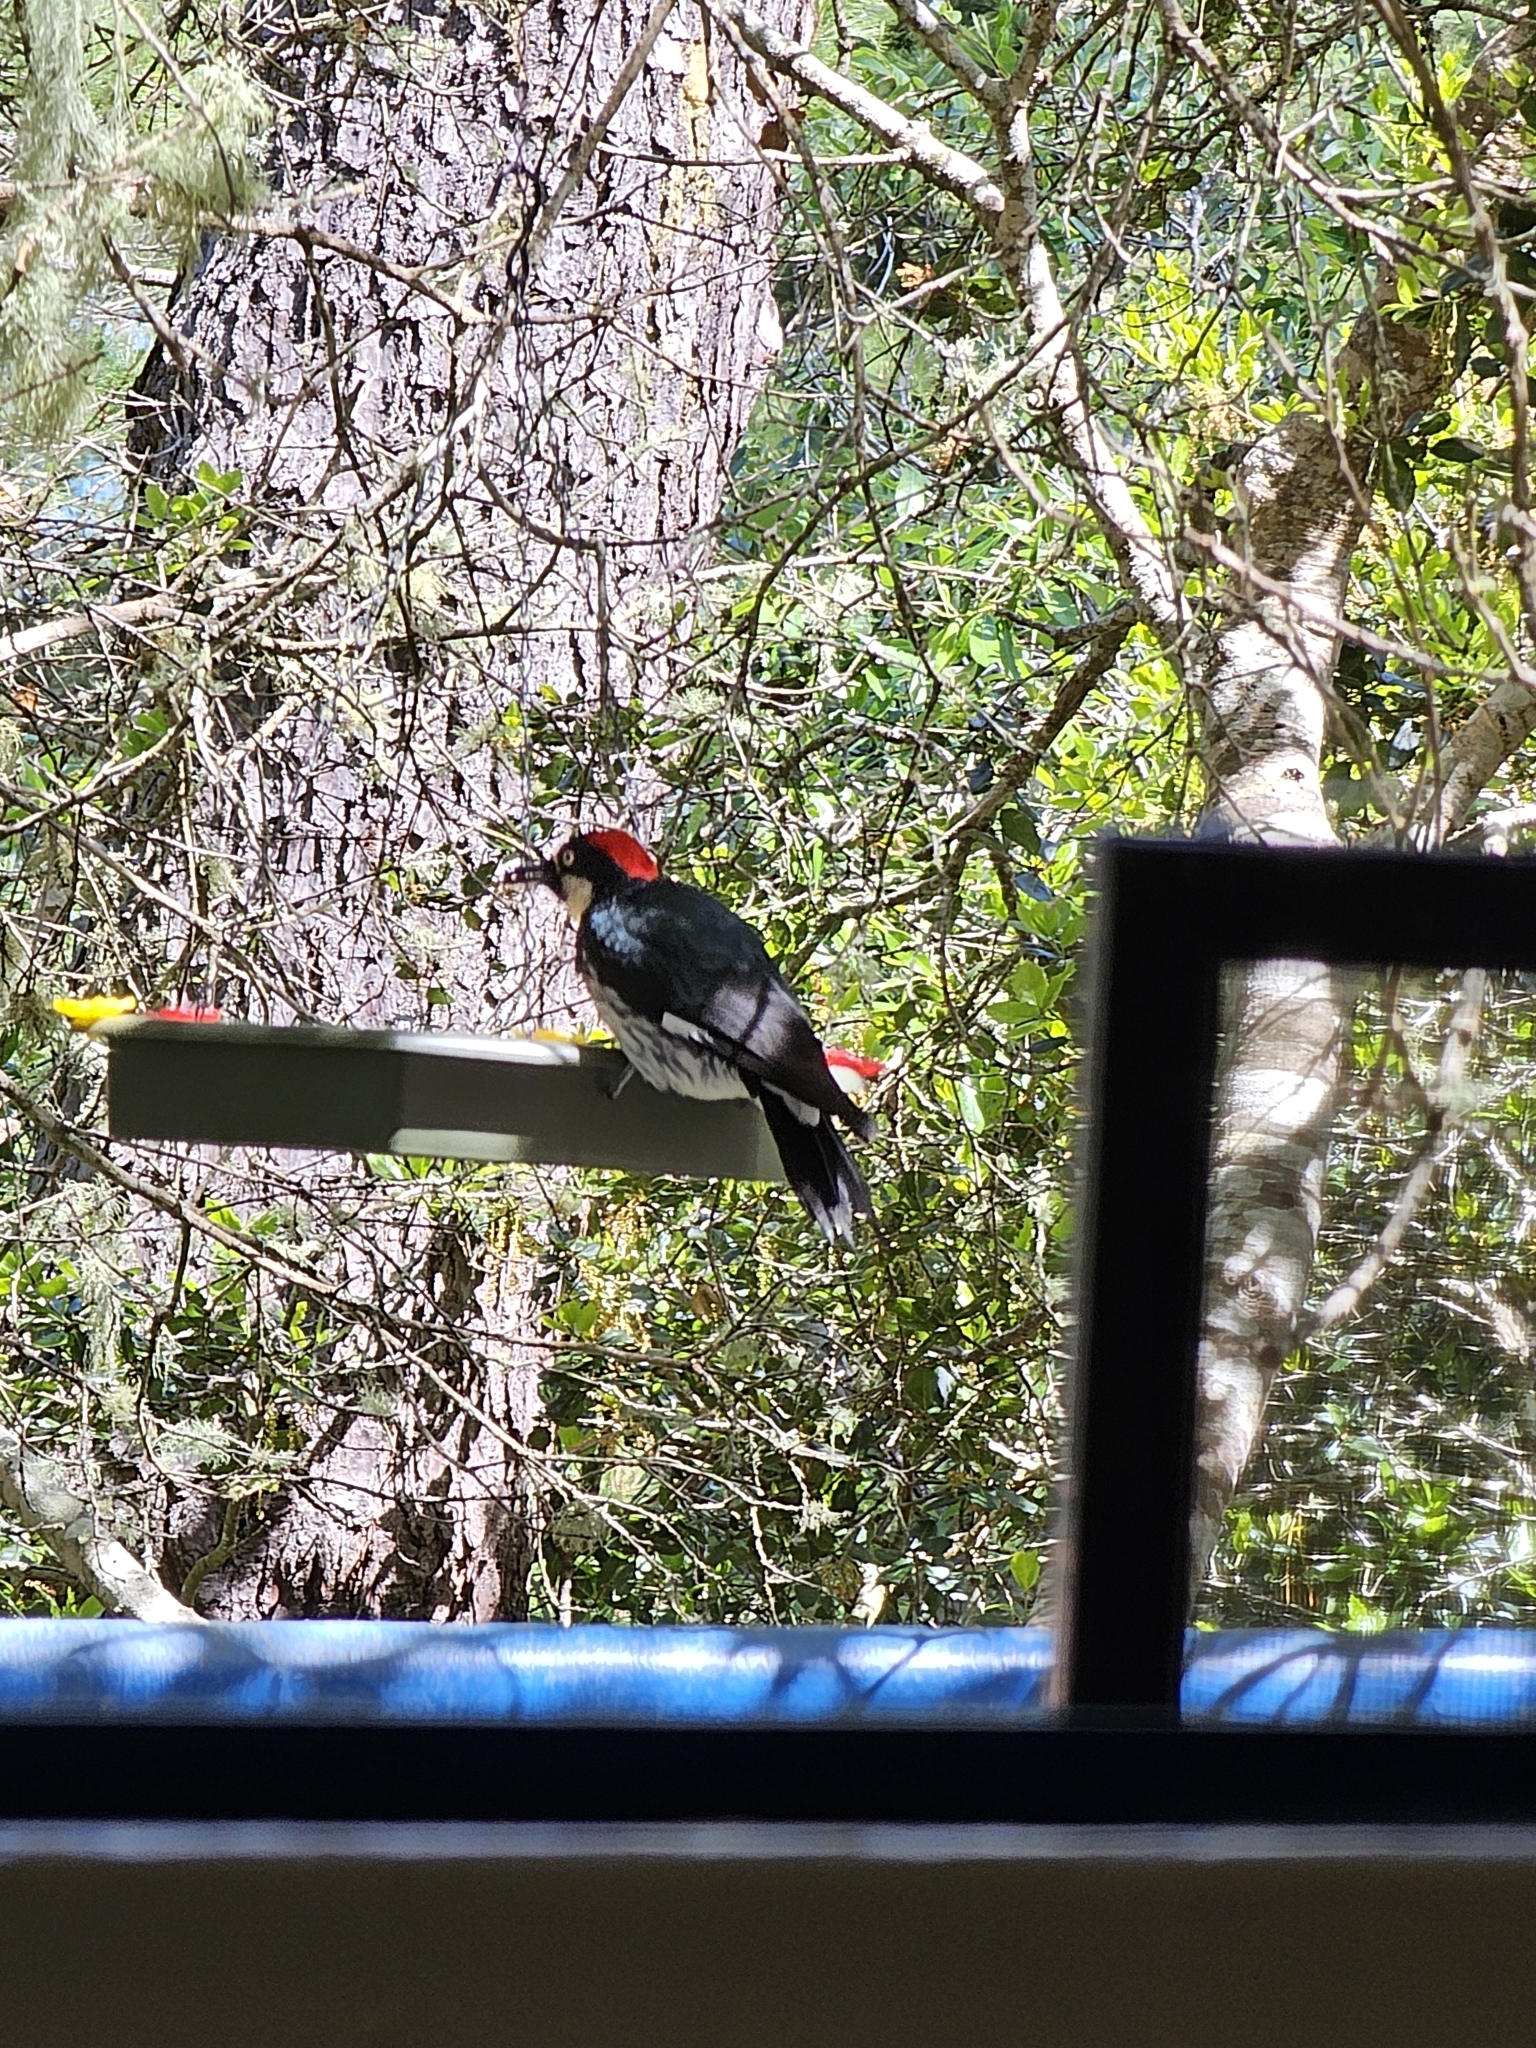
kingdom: Animalia
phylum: Chordata
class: Aves
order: Piciformes
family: Picidae
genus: Melanerpes
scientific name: Melanerpes formicivorus
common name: Acorn woodpecker
